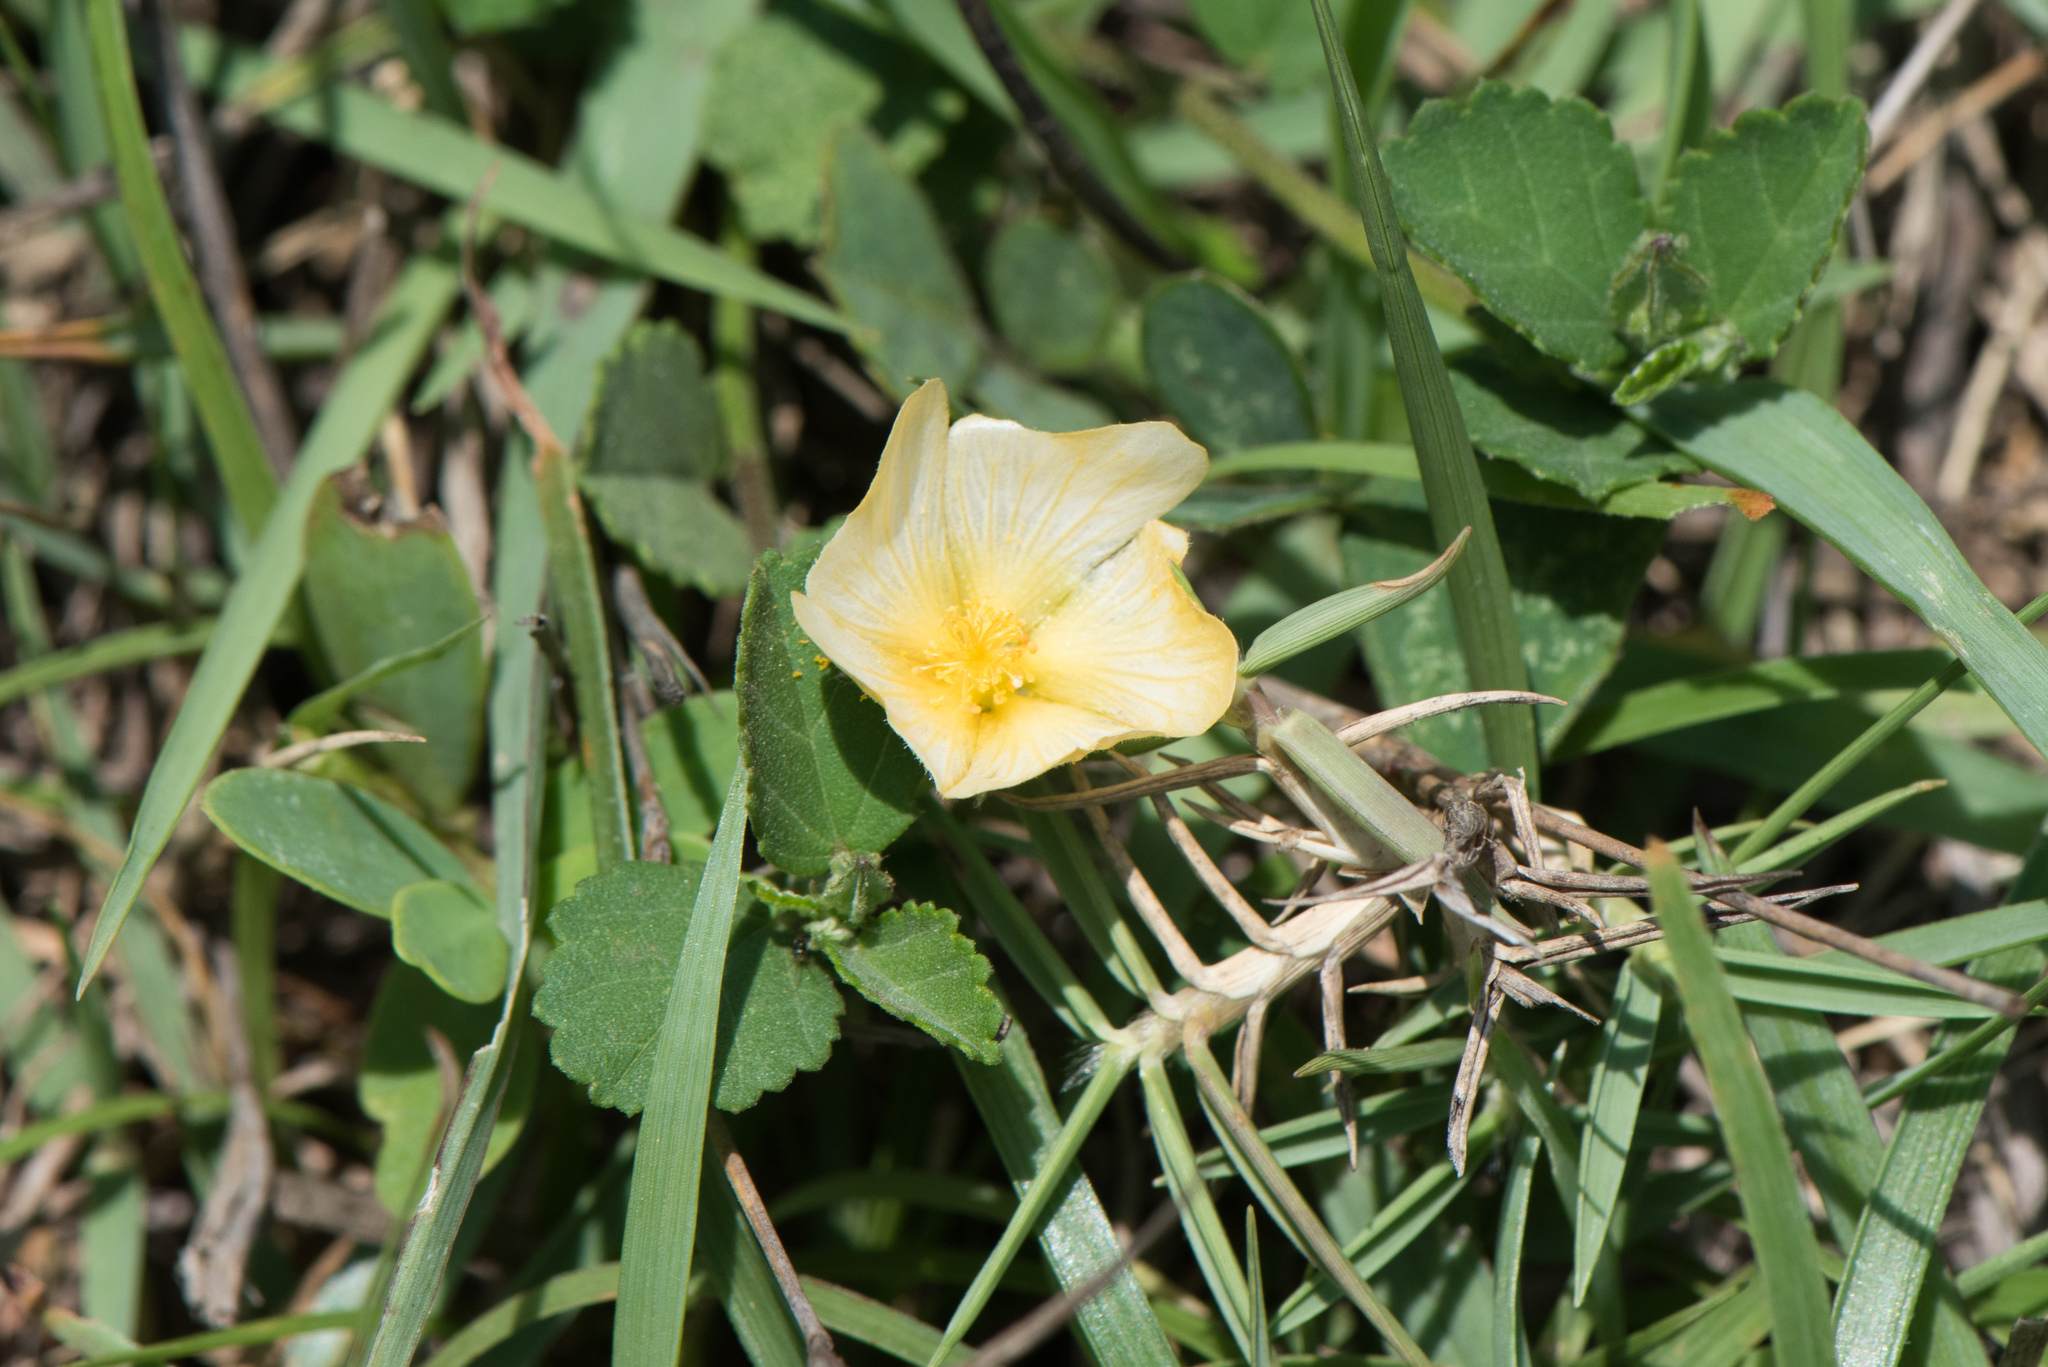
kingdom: Plantae
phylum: Tracheophyta
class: Magnoliopsida
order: Malvales
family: Malvaceae
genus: Sida
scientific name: Sida rhombifolia
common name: Queensland-hemp
